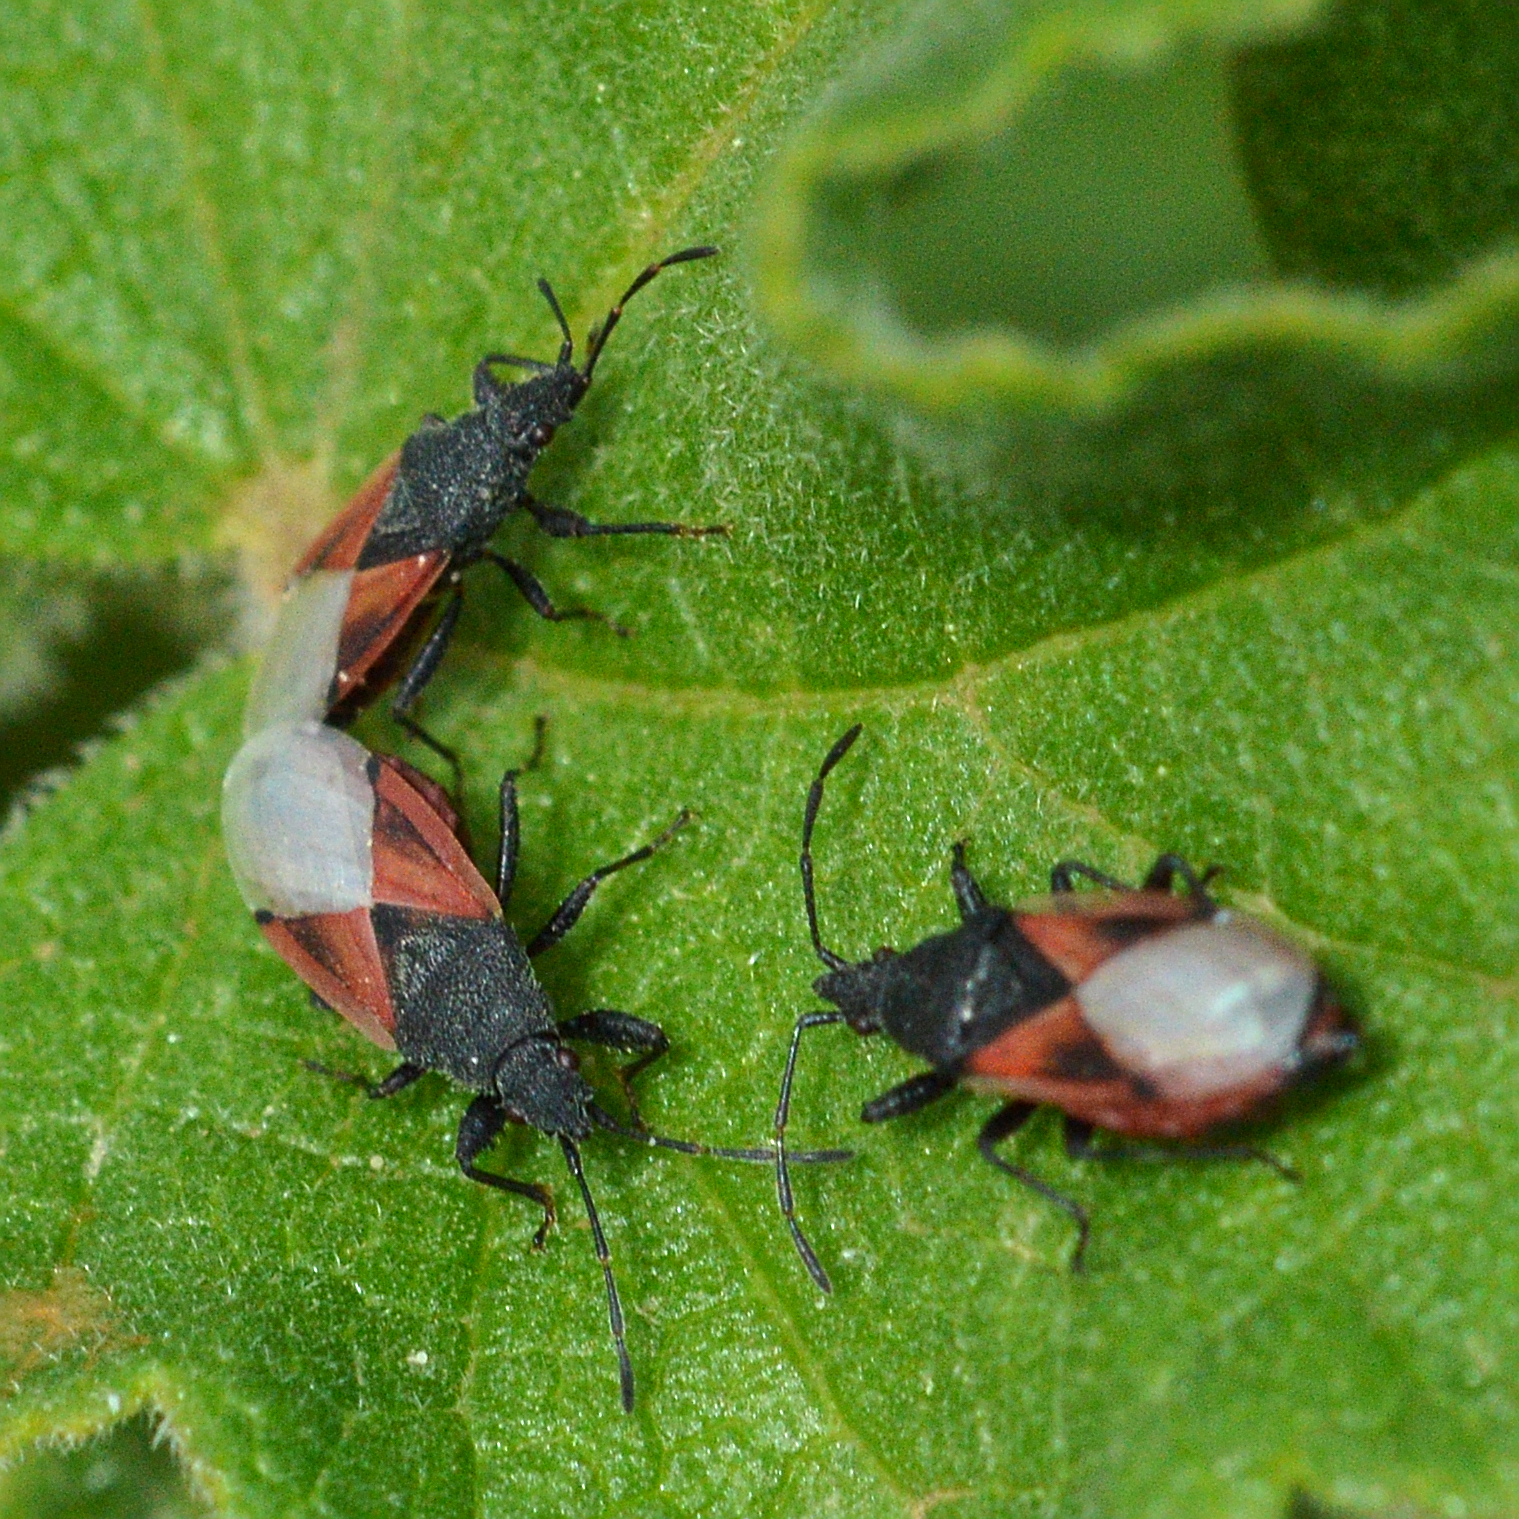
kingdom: Animalia
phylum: Arthropoda
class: Insecta
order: Hemiptera
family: Oxycarenidae
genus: Oxycarenus
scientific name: Oxycarenus lavaterae
